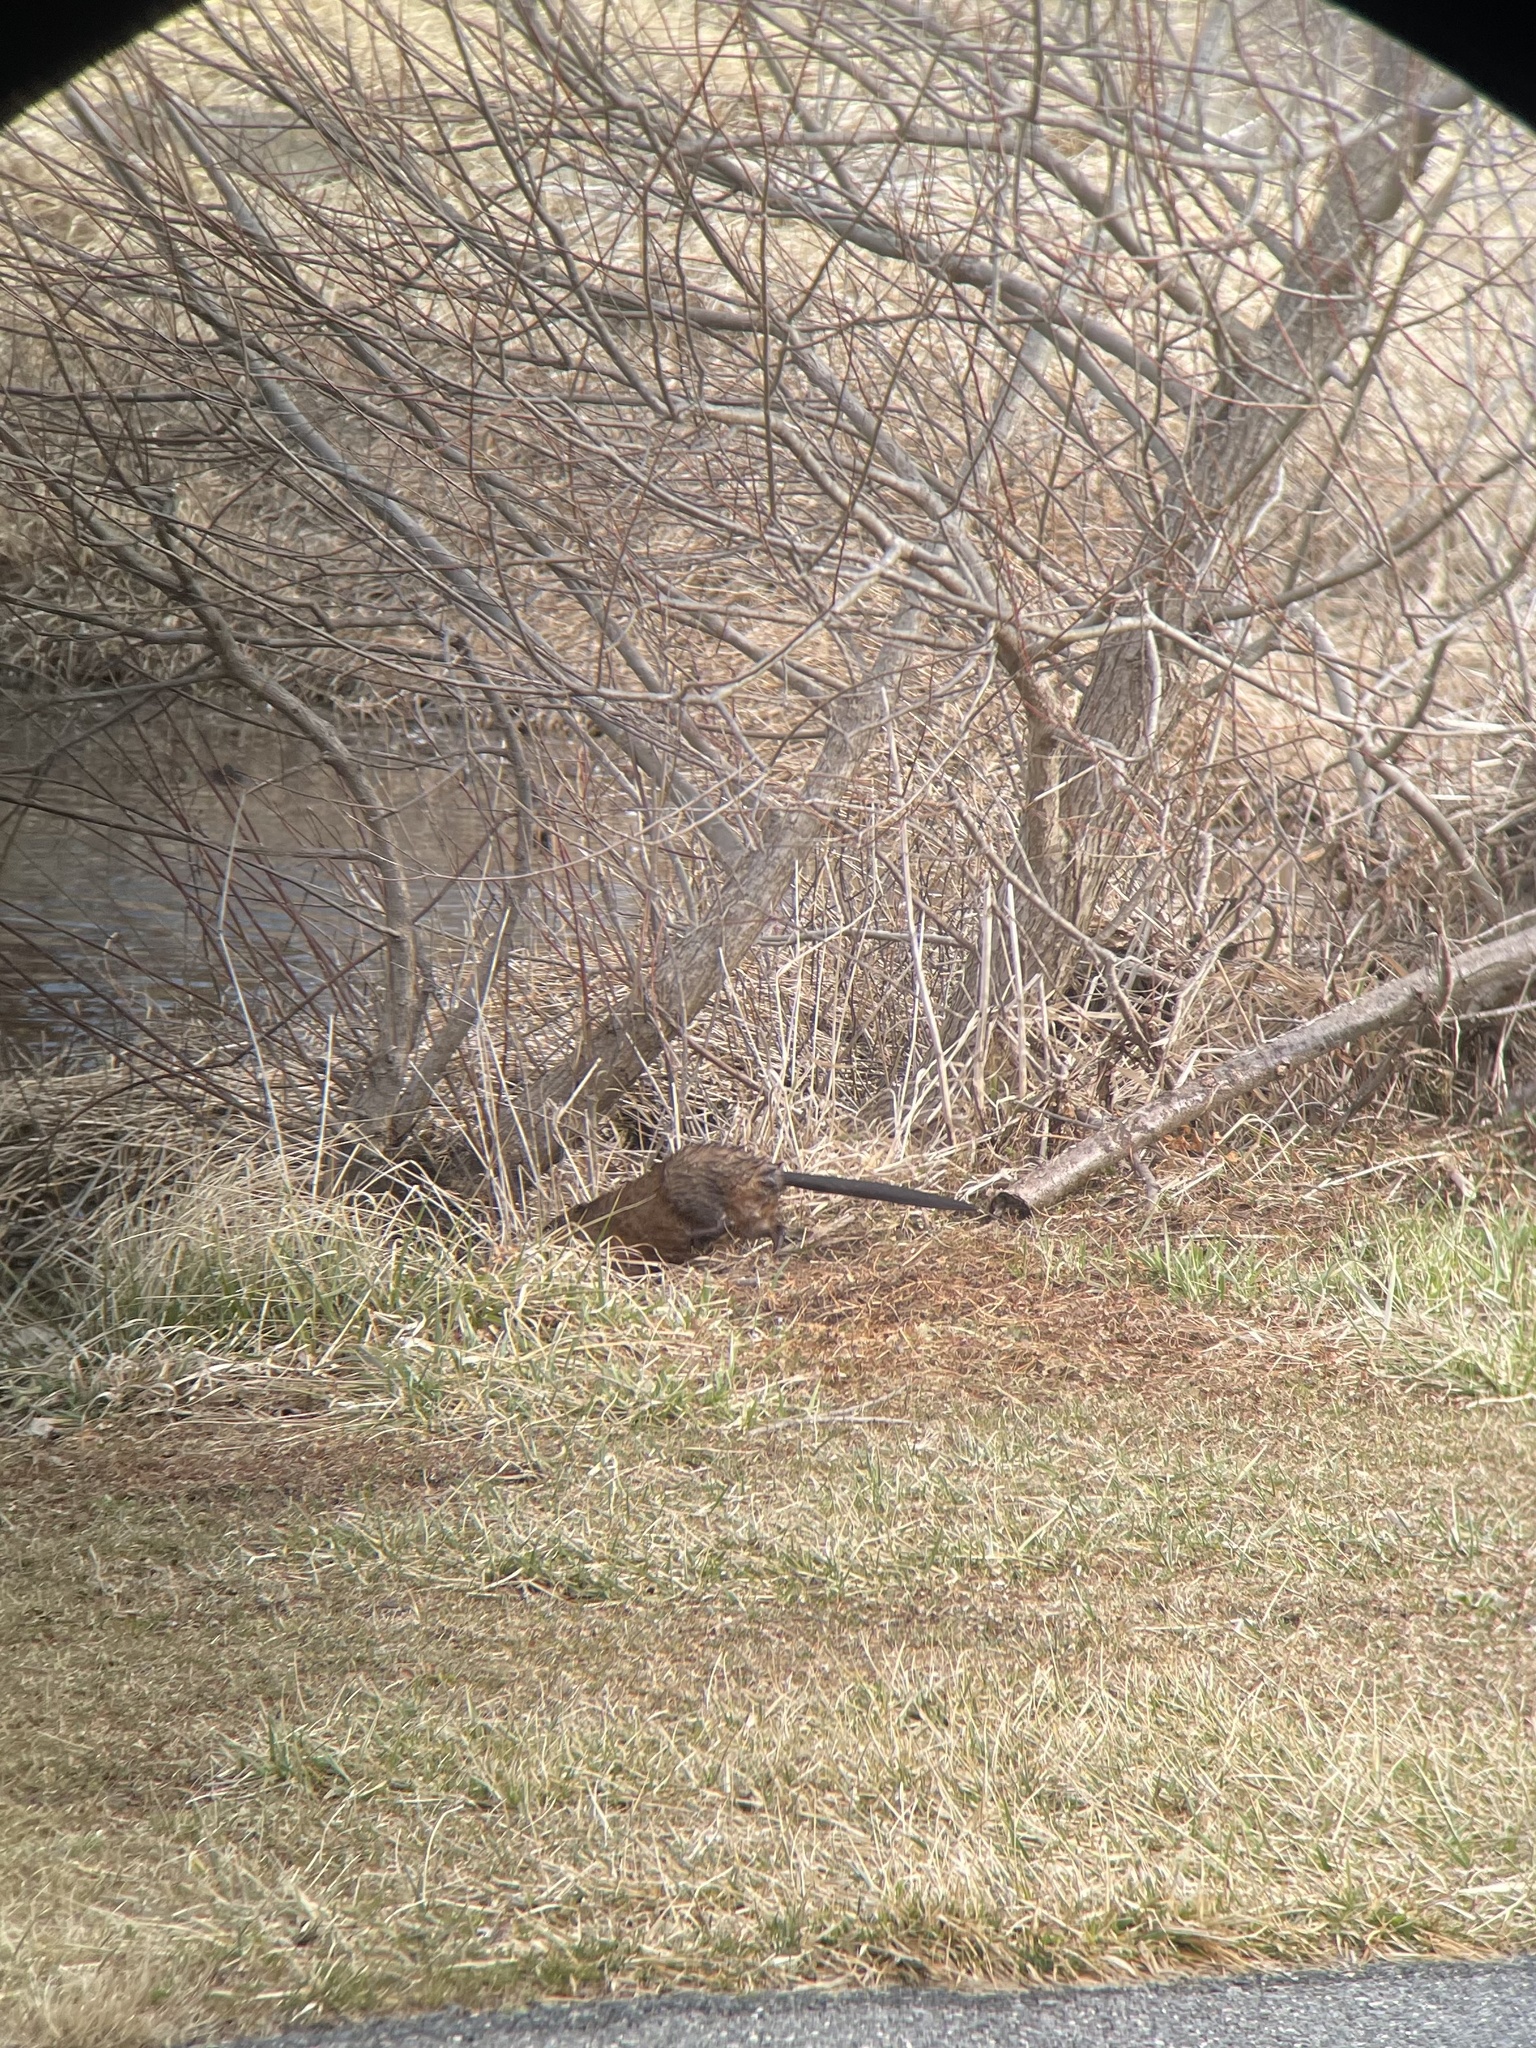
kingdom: Animalia
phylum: Chordata
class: Mammalia
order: Rodentia
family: Cricetidae
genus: Ondatra
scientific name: Ondatra zibethicus
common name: Muskrat
